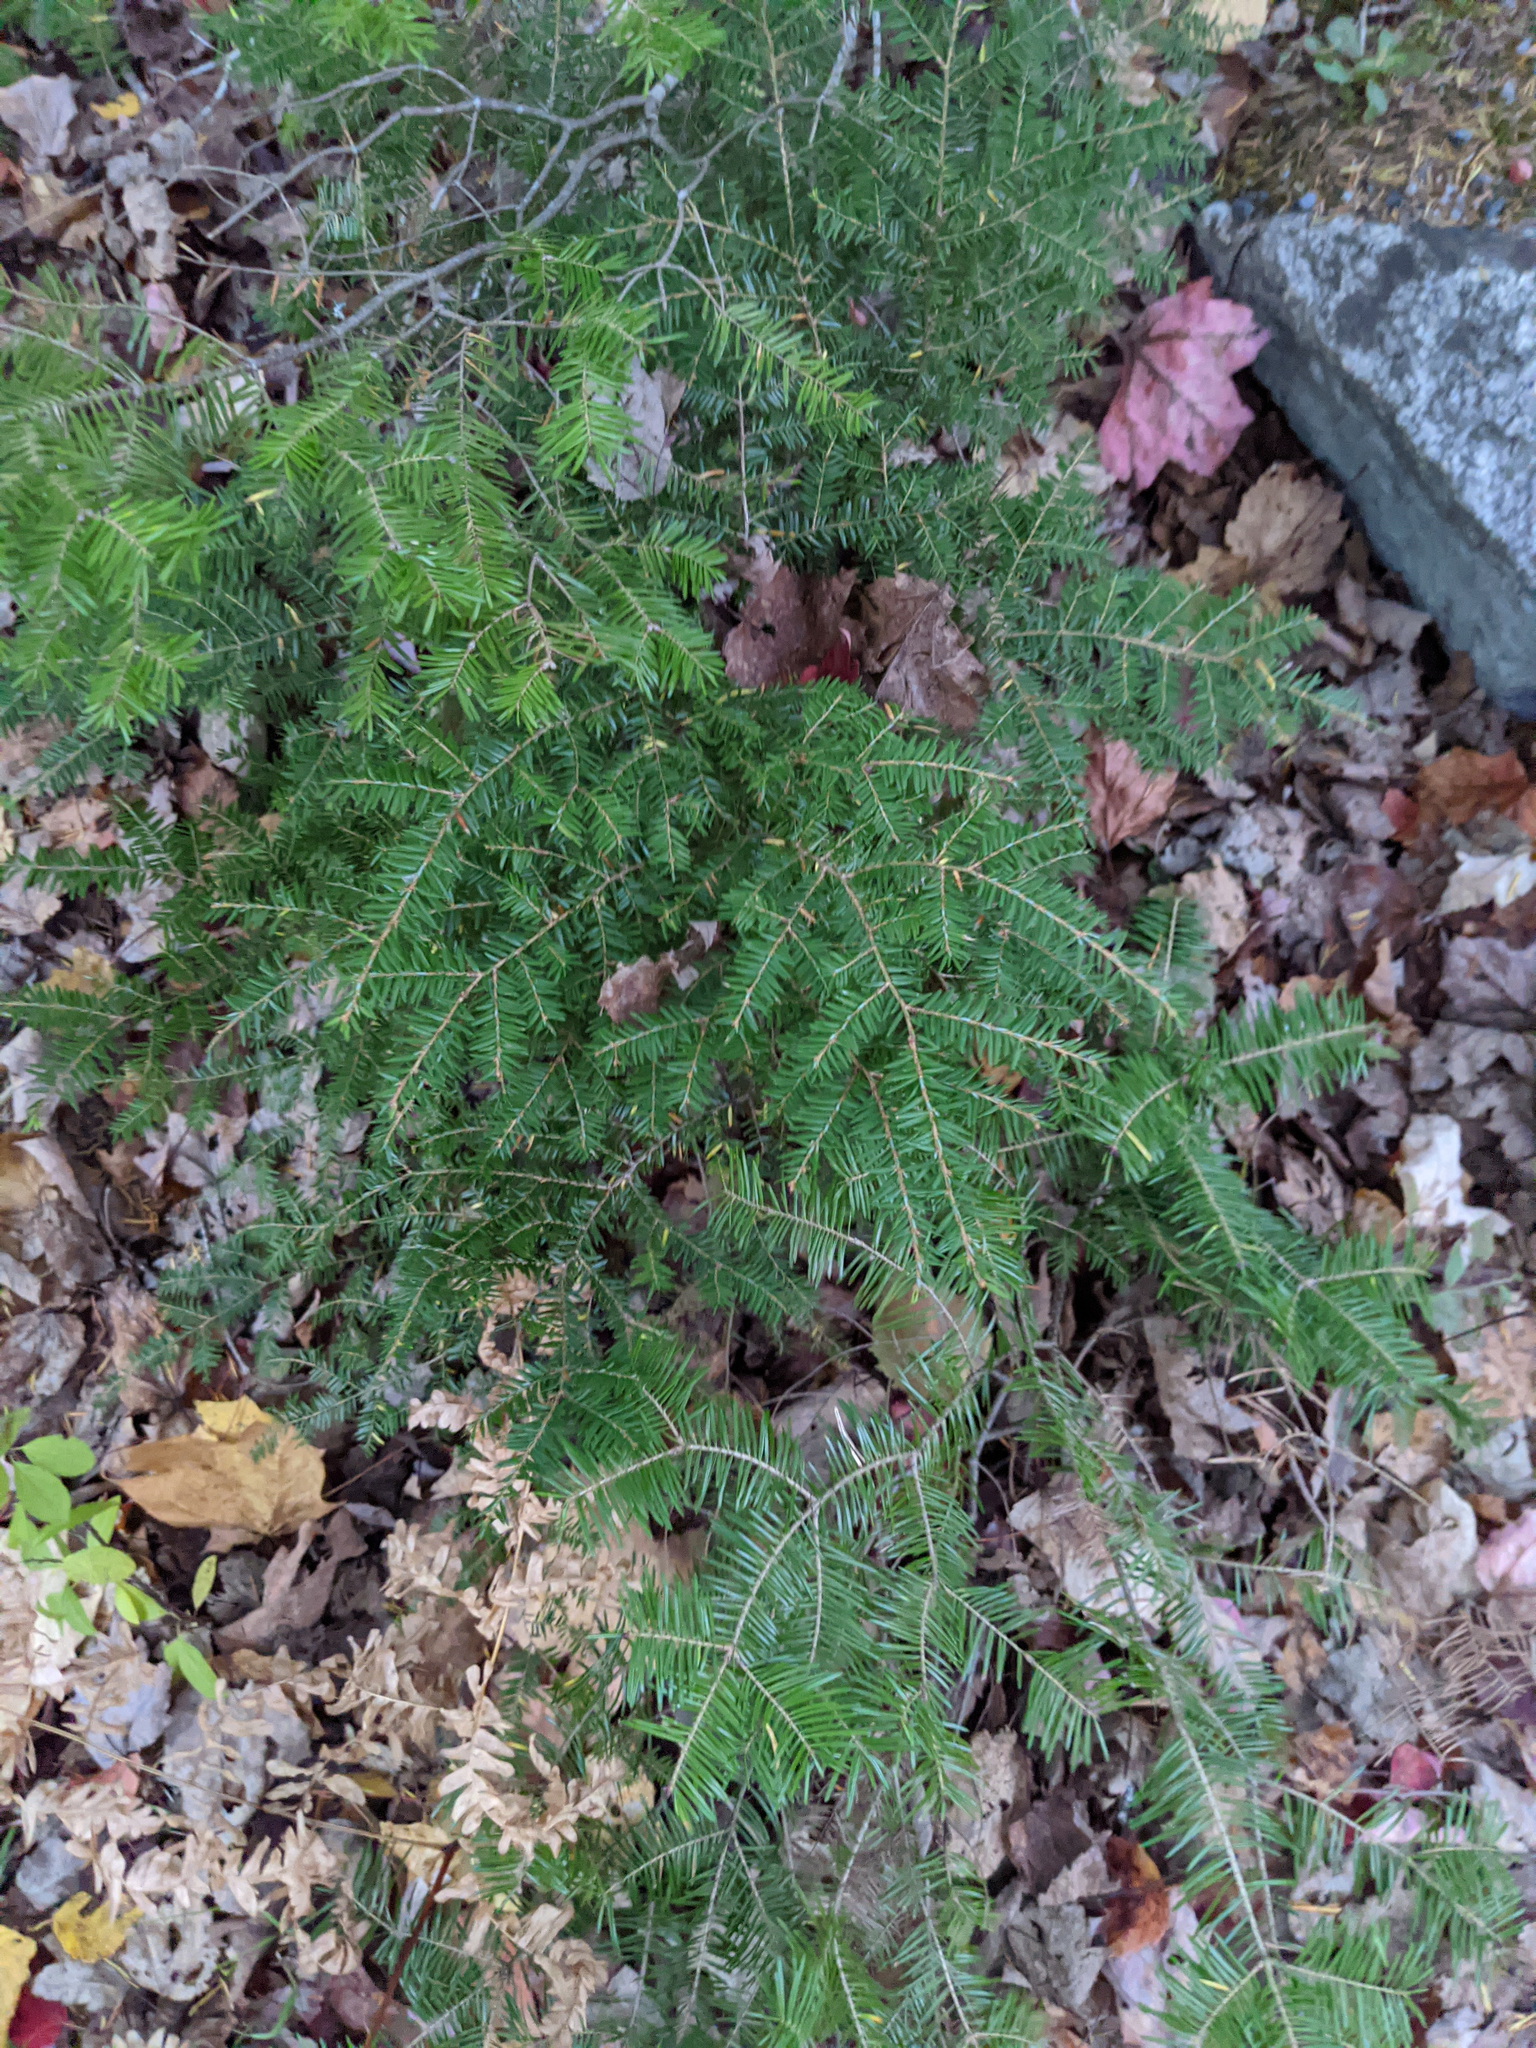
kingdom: Plantae
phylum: Tracheophyta
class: Pinopsida
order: Pinales
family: Pinaceae
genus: Tsuga
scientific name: Tsuga canadensis
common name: Eastern hemlock
